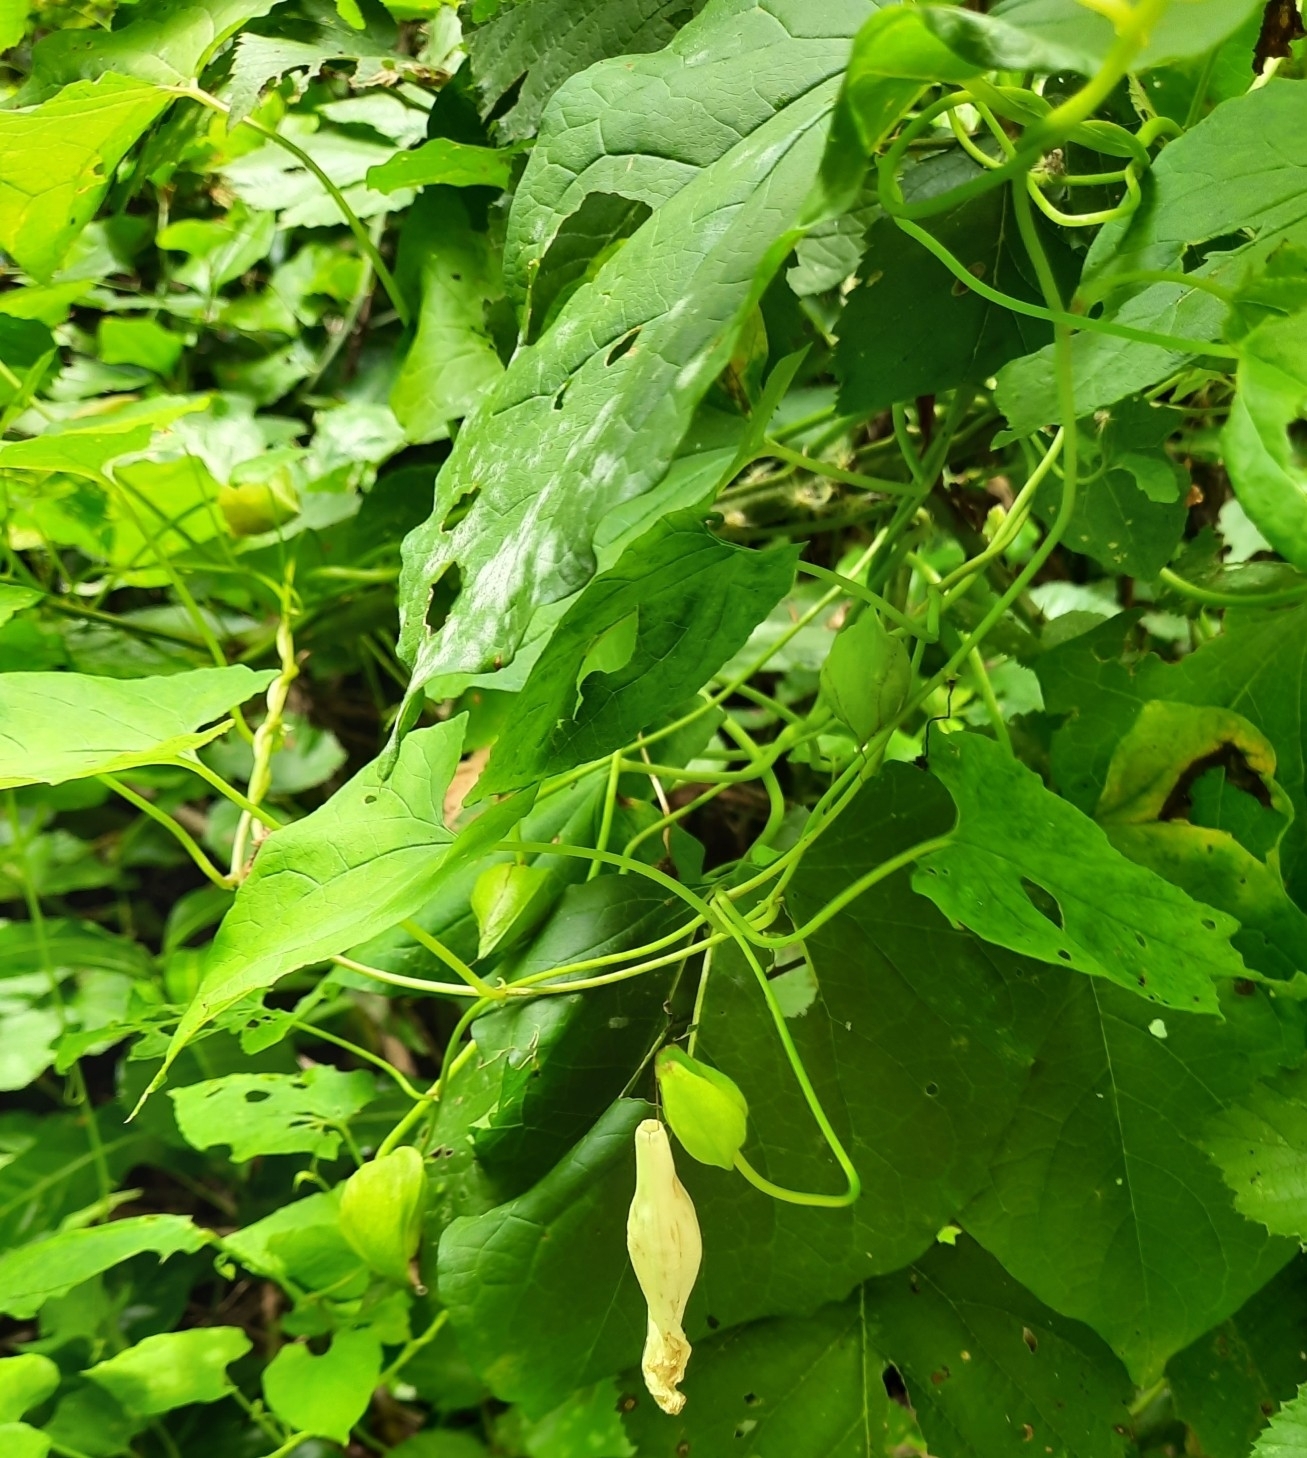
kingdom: Plantae
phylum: Tracheophyta
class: Magnoliopsida
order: Solanales
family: Convolvulaceae
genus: Calystegia
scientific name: Calystegia silvatica
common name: Large bindweed
